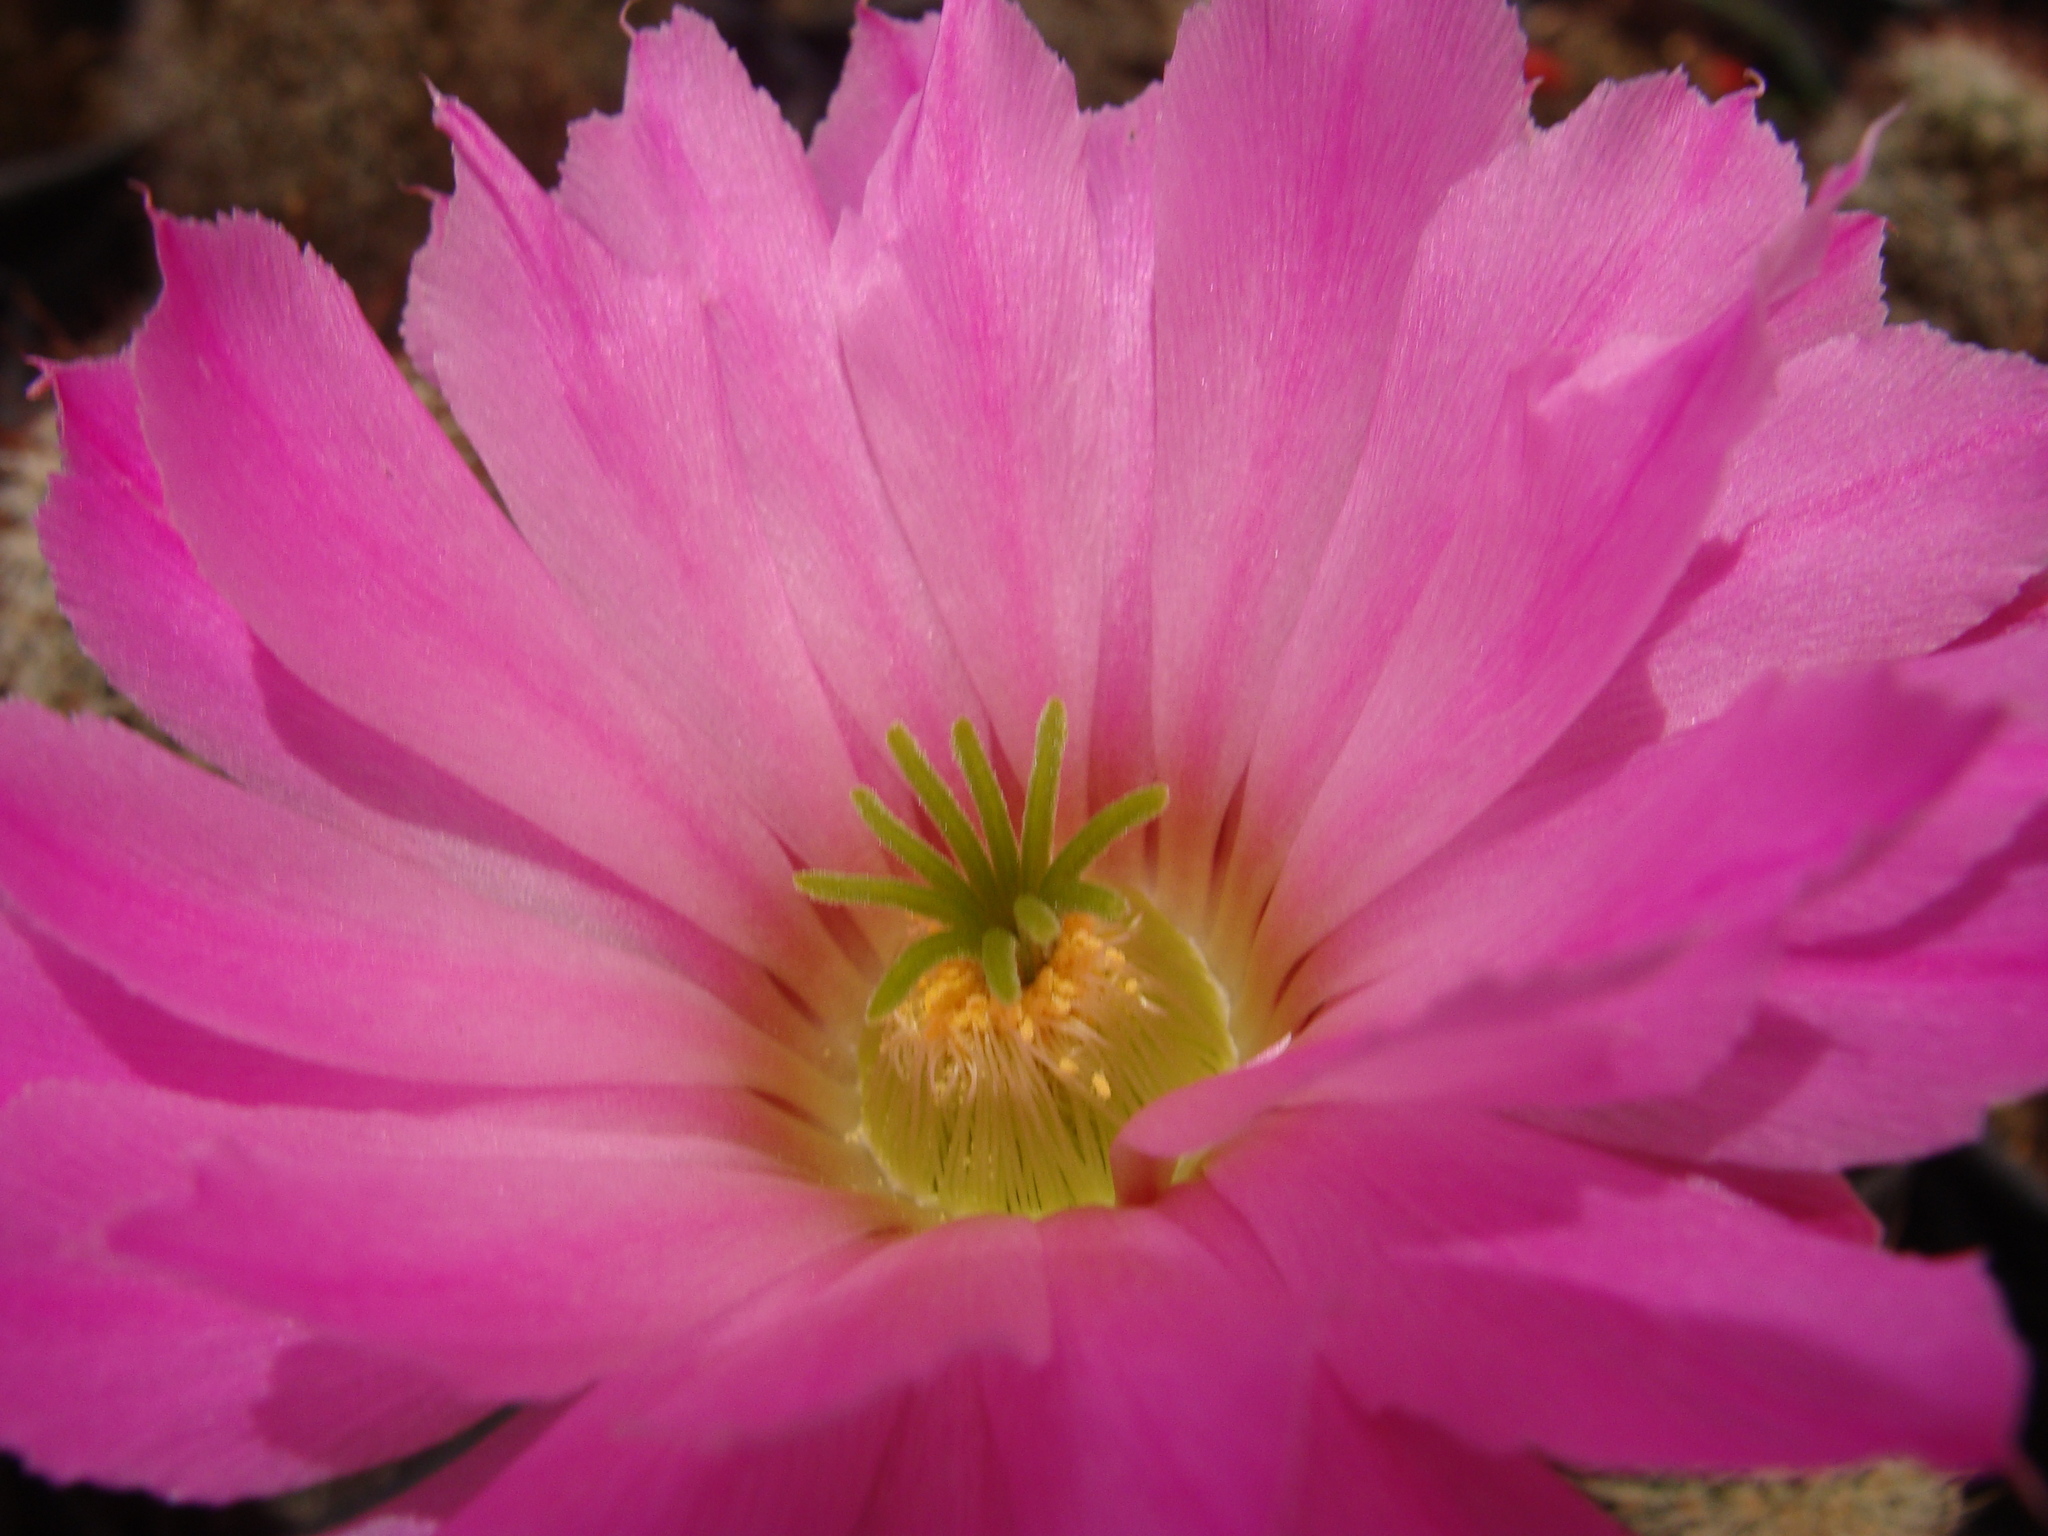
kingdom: Plantae
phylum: Tracheophyta
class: Magnoliopsida
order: Caryophyllales
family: Cactaceae
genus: Echinocereus
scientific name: Echinocereus sciurus
